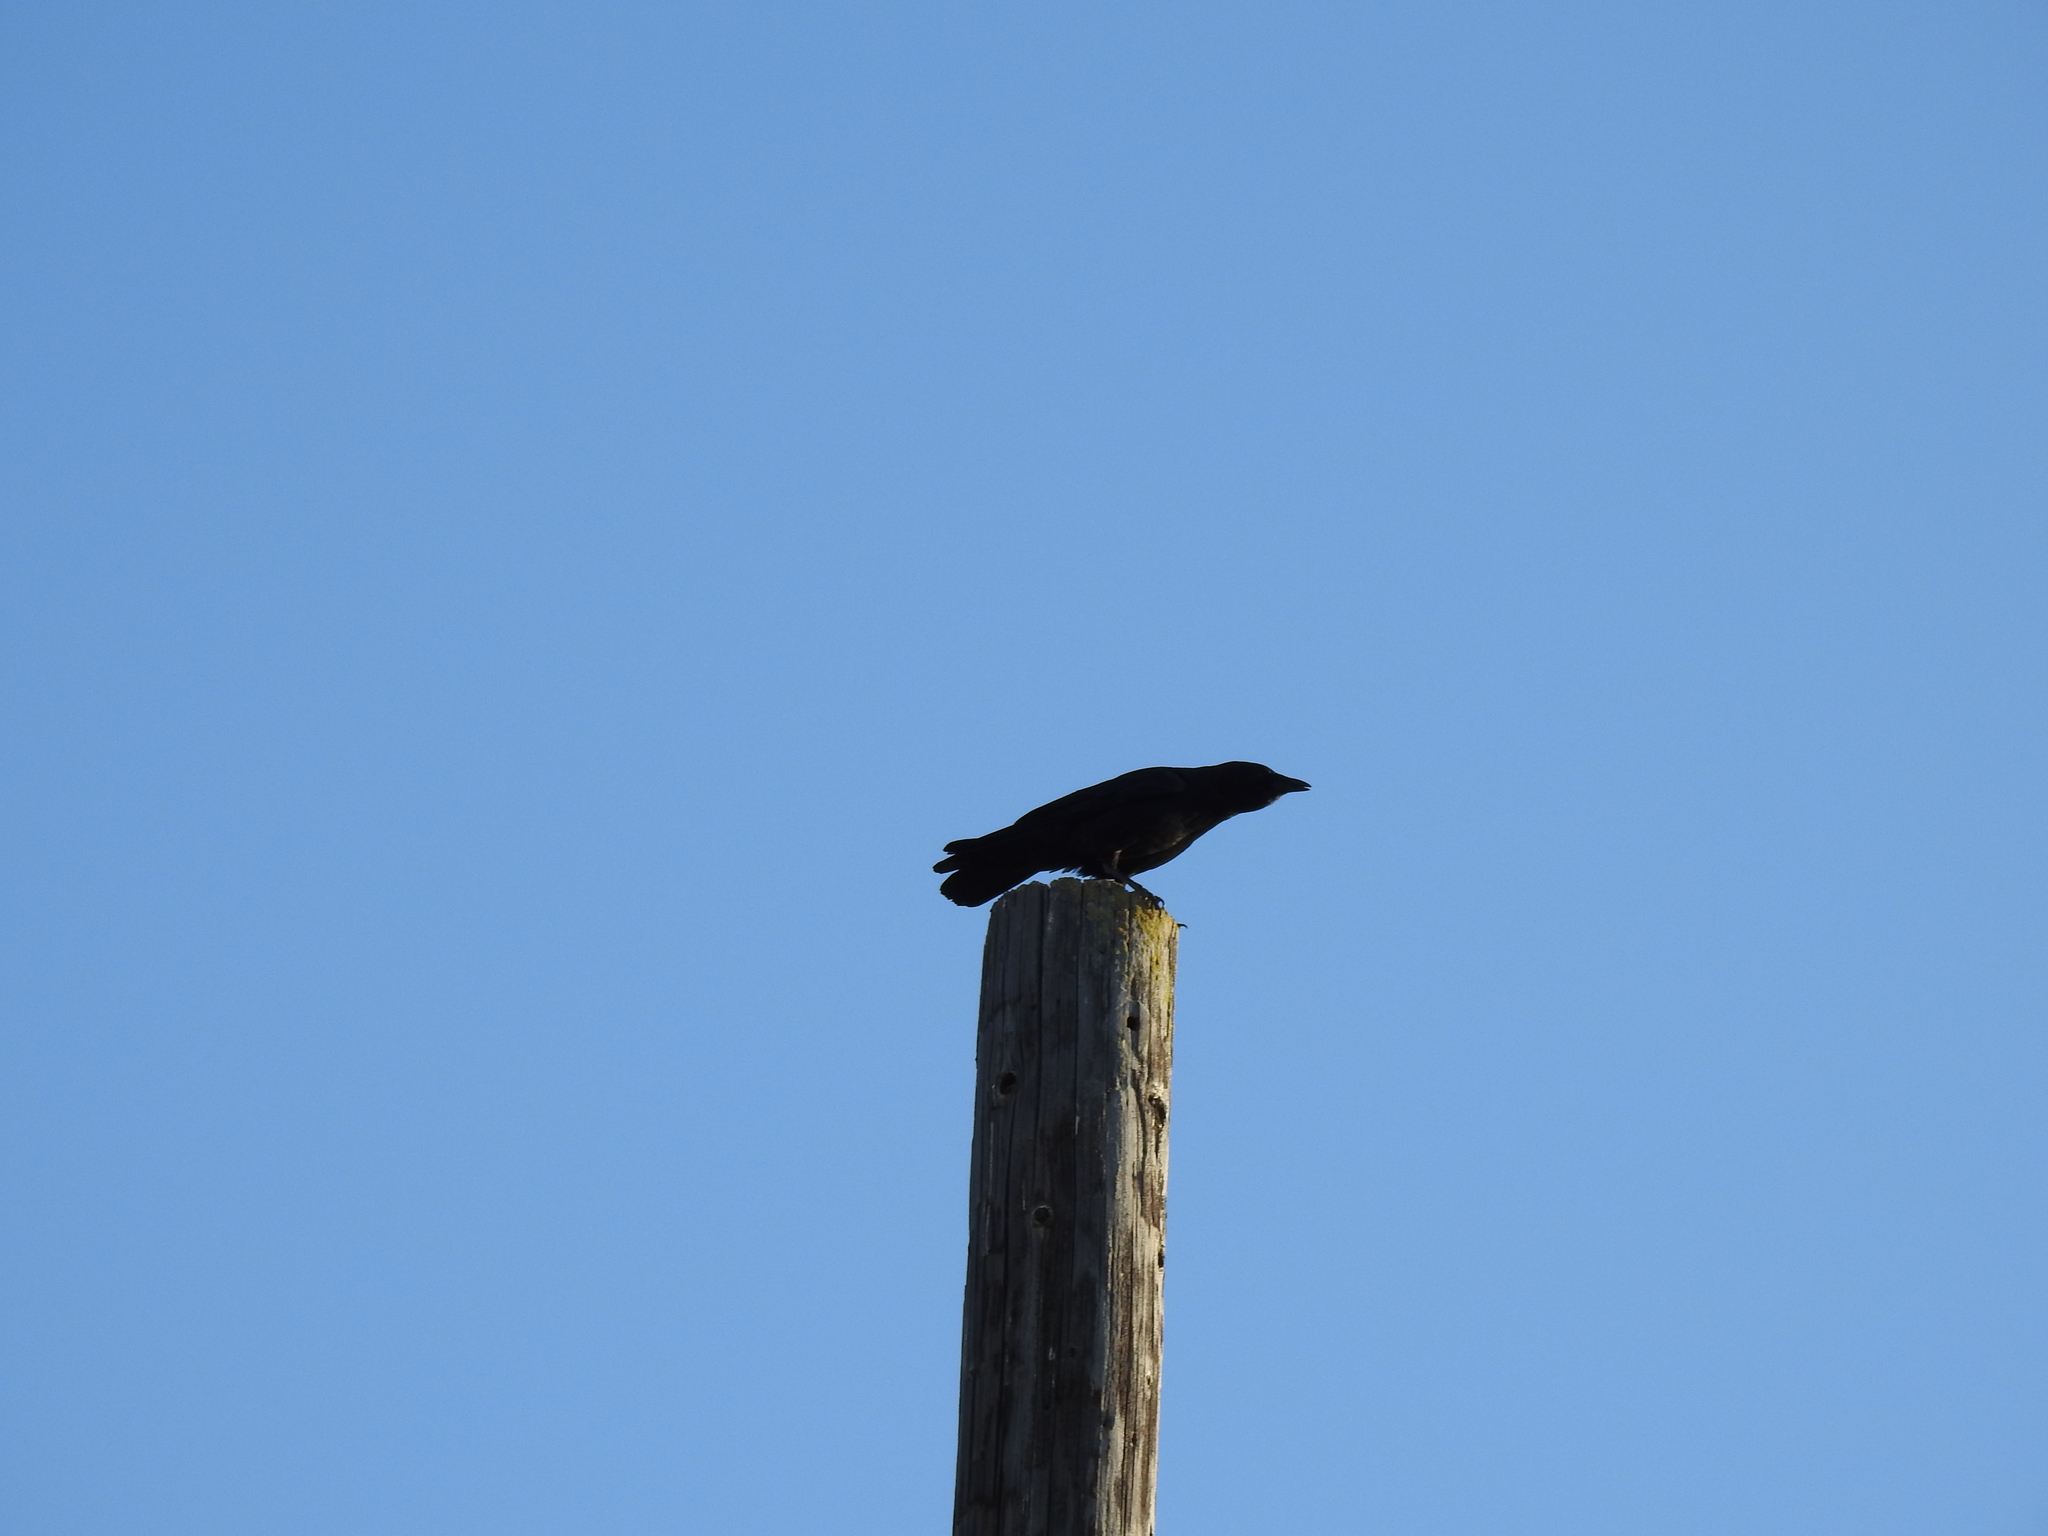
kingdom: Animalia
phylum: Chordata
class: Aves
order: Passeriformes
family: Corvidae
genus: Corvus
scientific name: Corvus brachyrhynchos
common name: American crow
